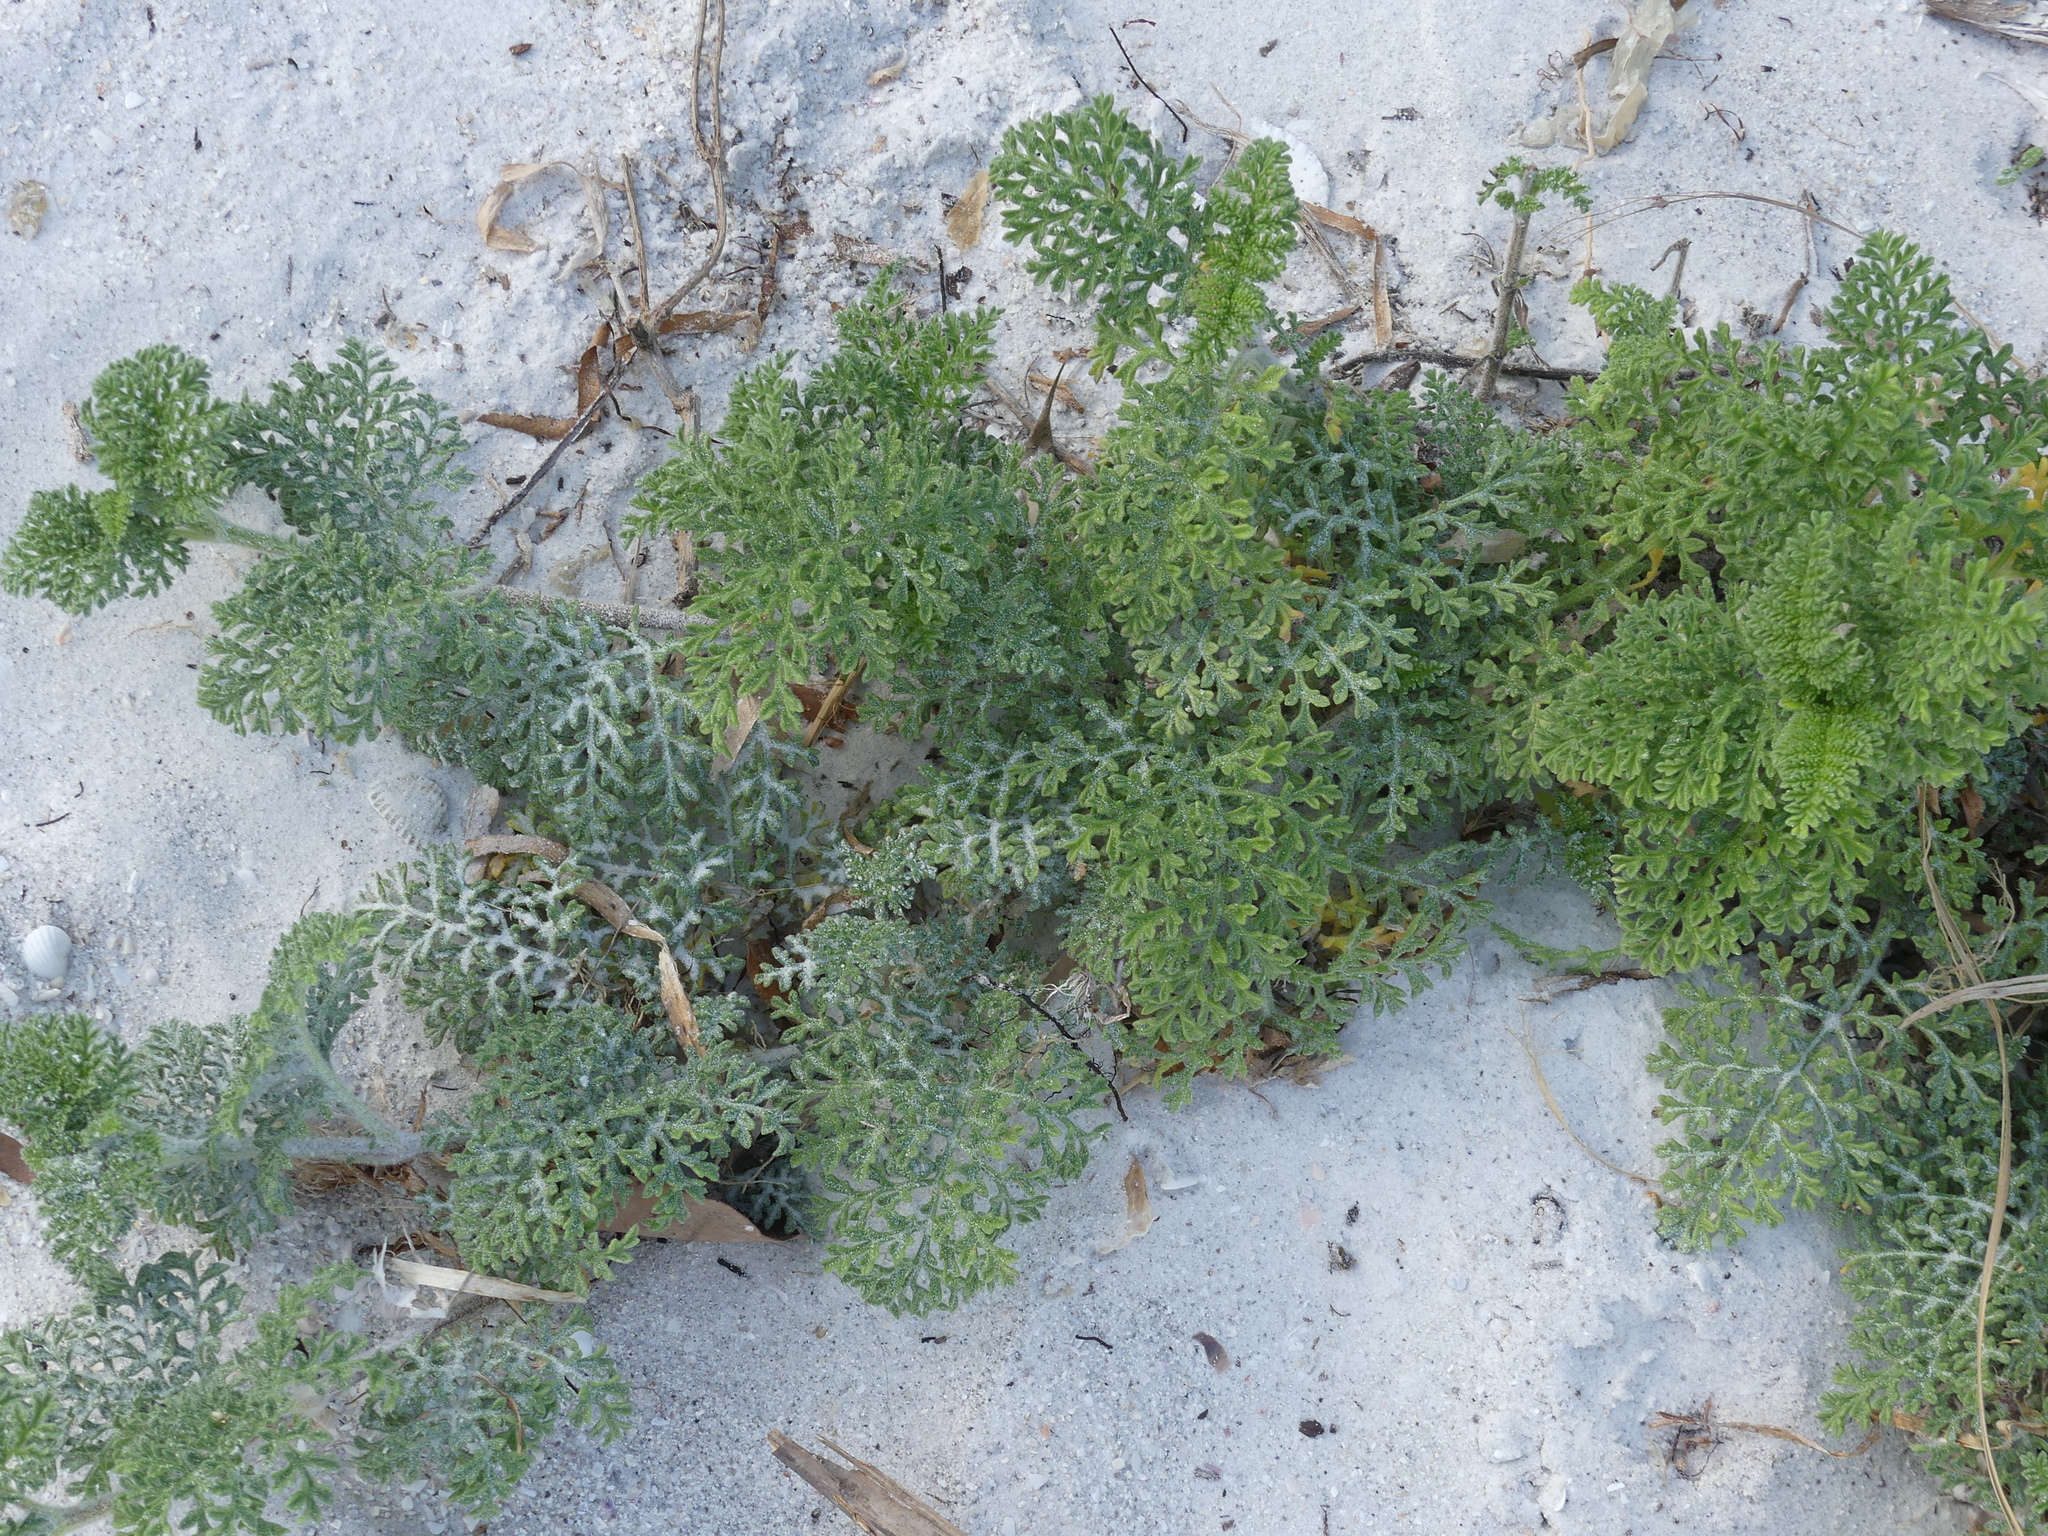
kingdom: Plantae
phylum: Tracheophyta
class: Magnoliopsida
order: Asterales
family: Asteraceae
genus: Ambrosia
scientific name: Ambrosia hispida
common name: Coastal ragweed
